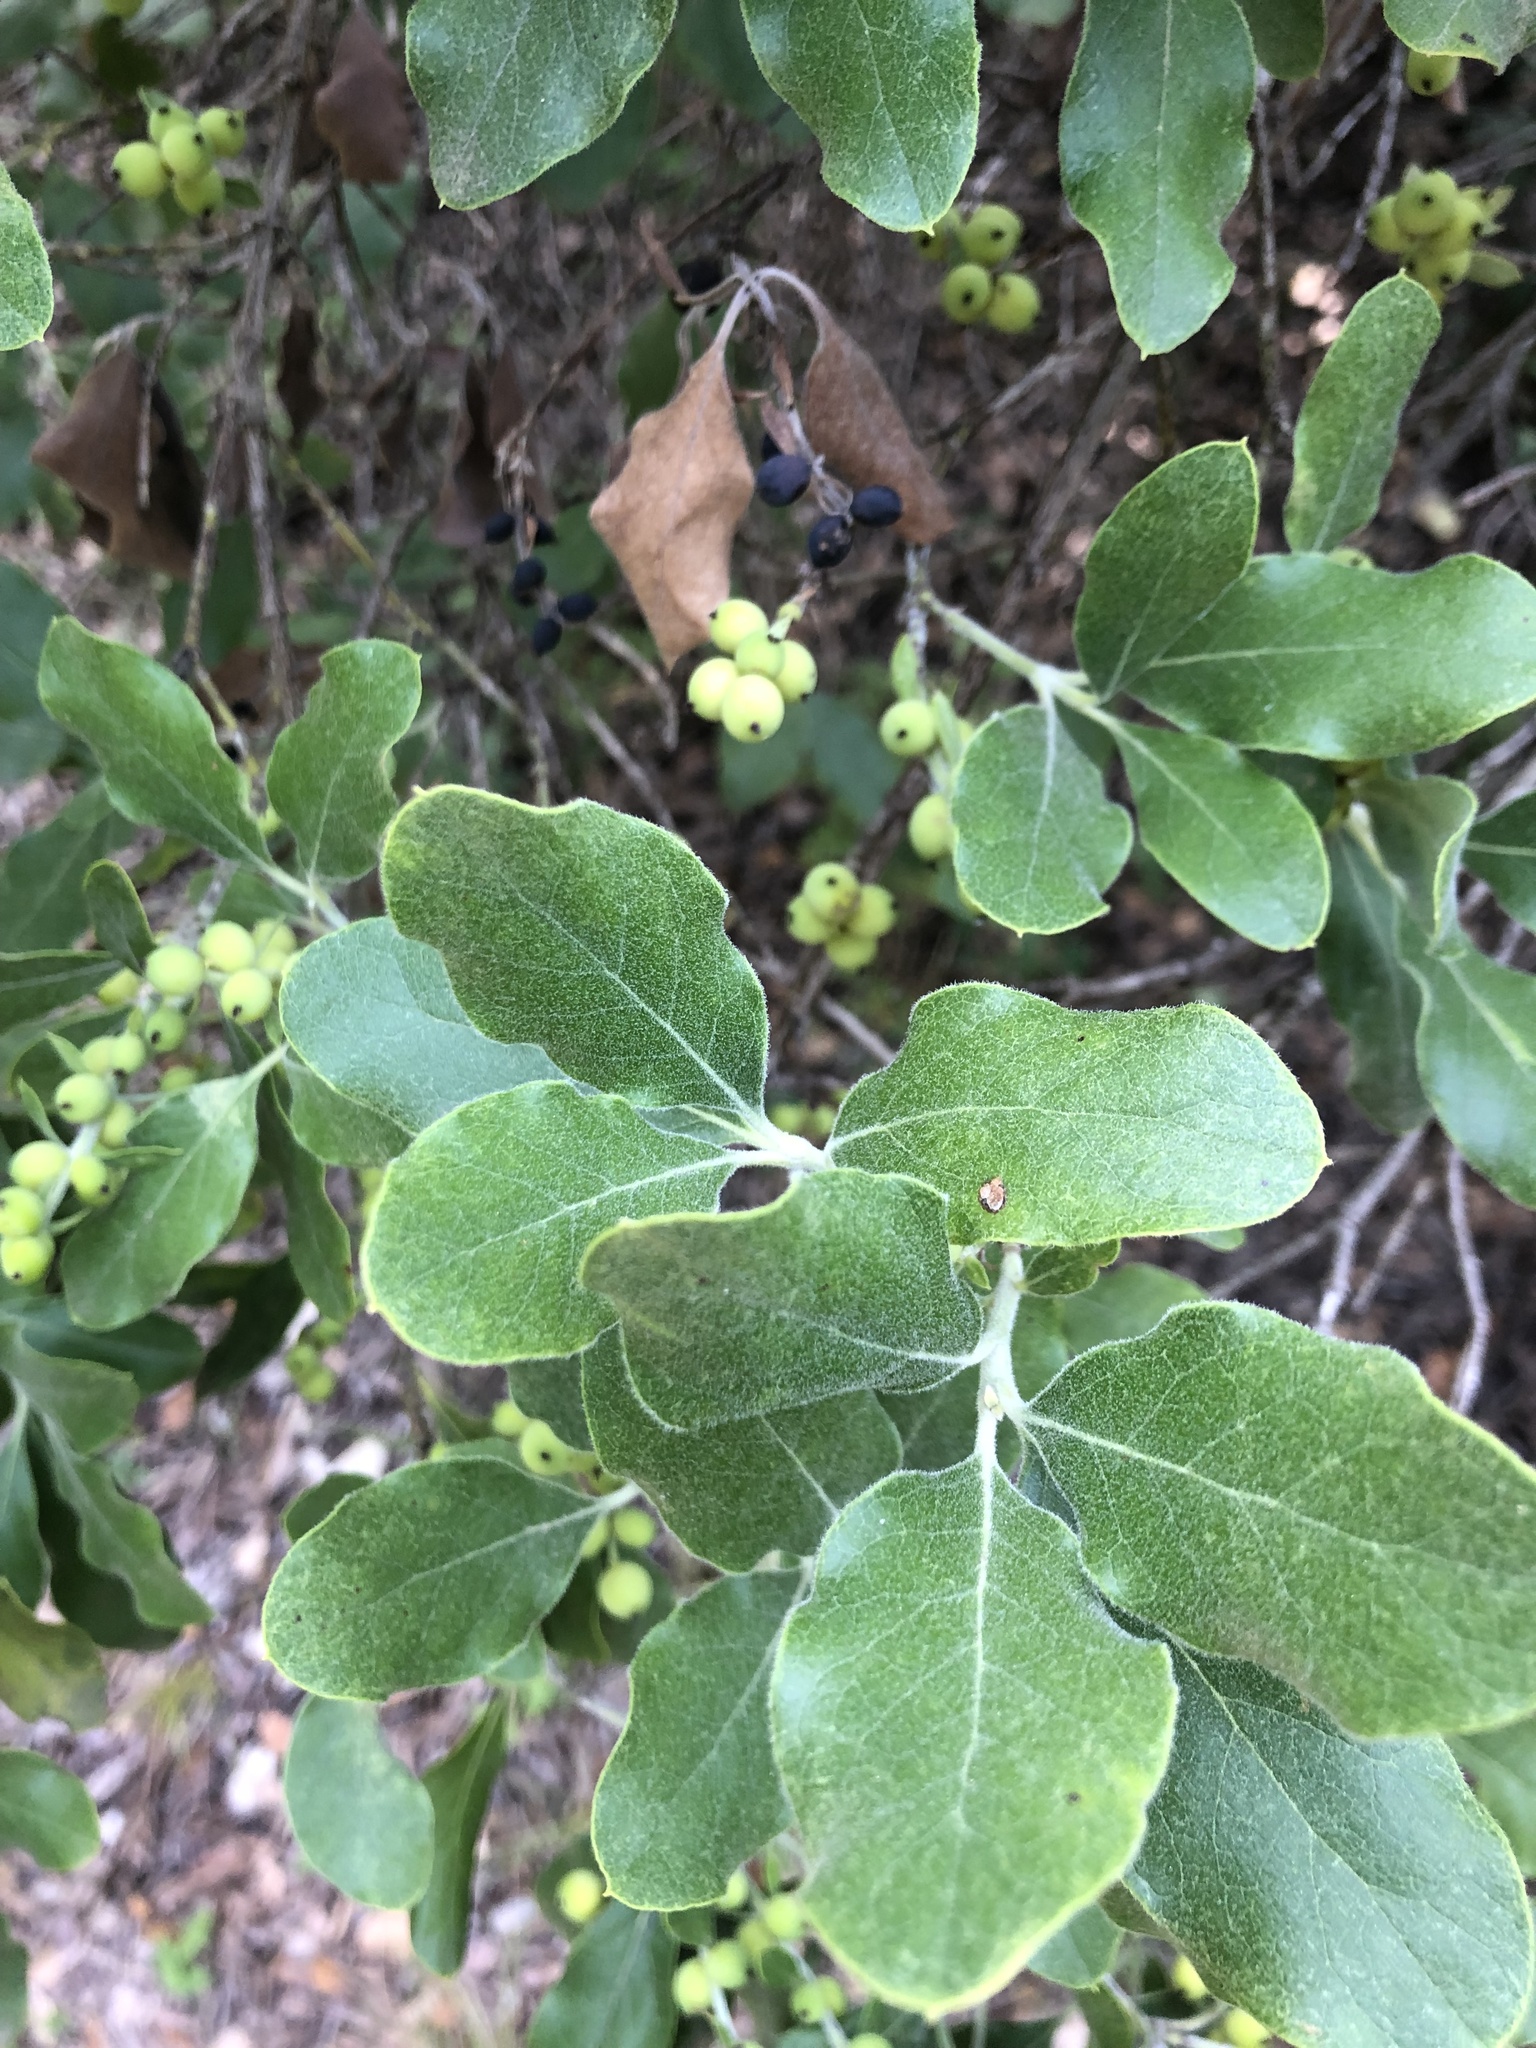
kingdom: Plantae
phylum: Tracheophyta
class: Magnoliopsida
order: Garryales
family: Garryaceae
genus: Garrya
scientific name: Garrya lindheimeri
